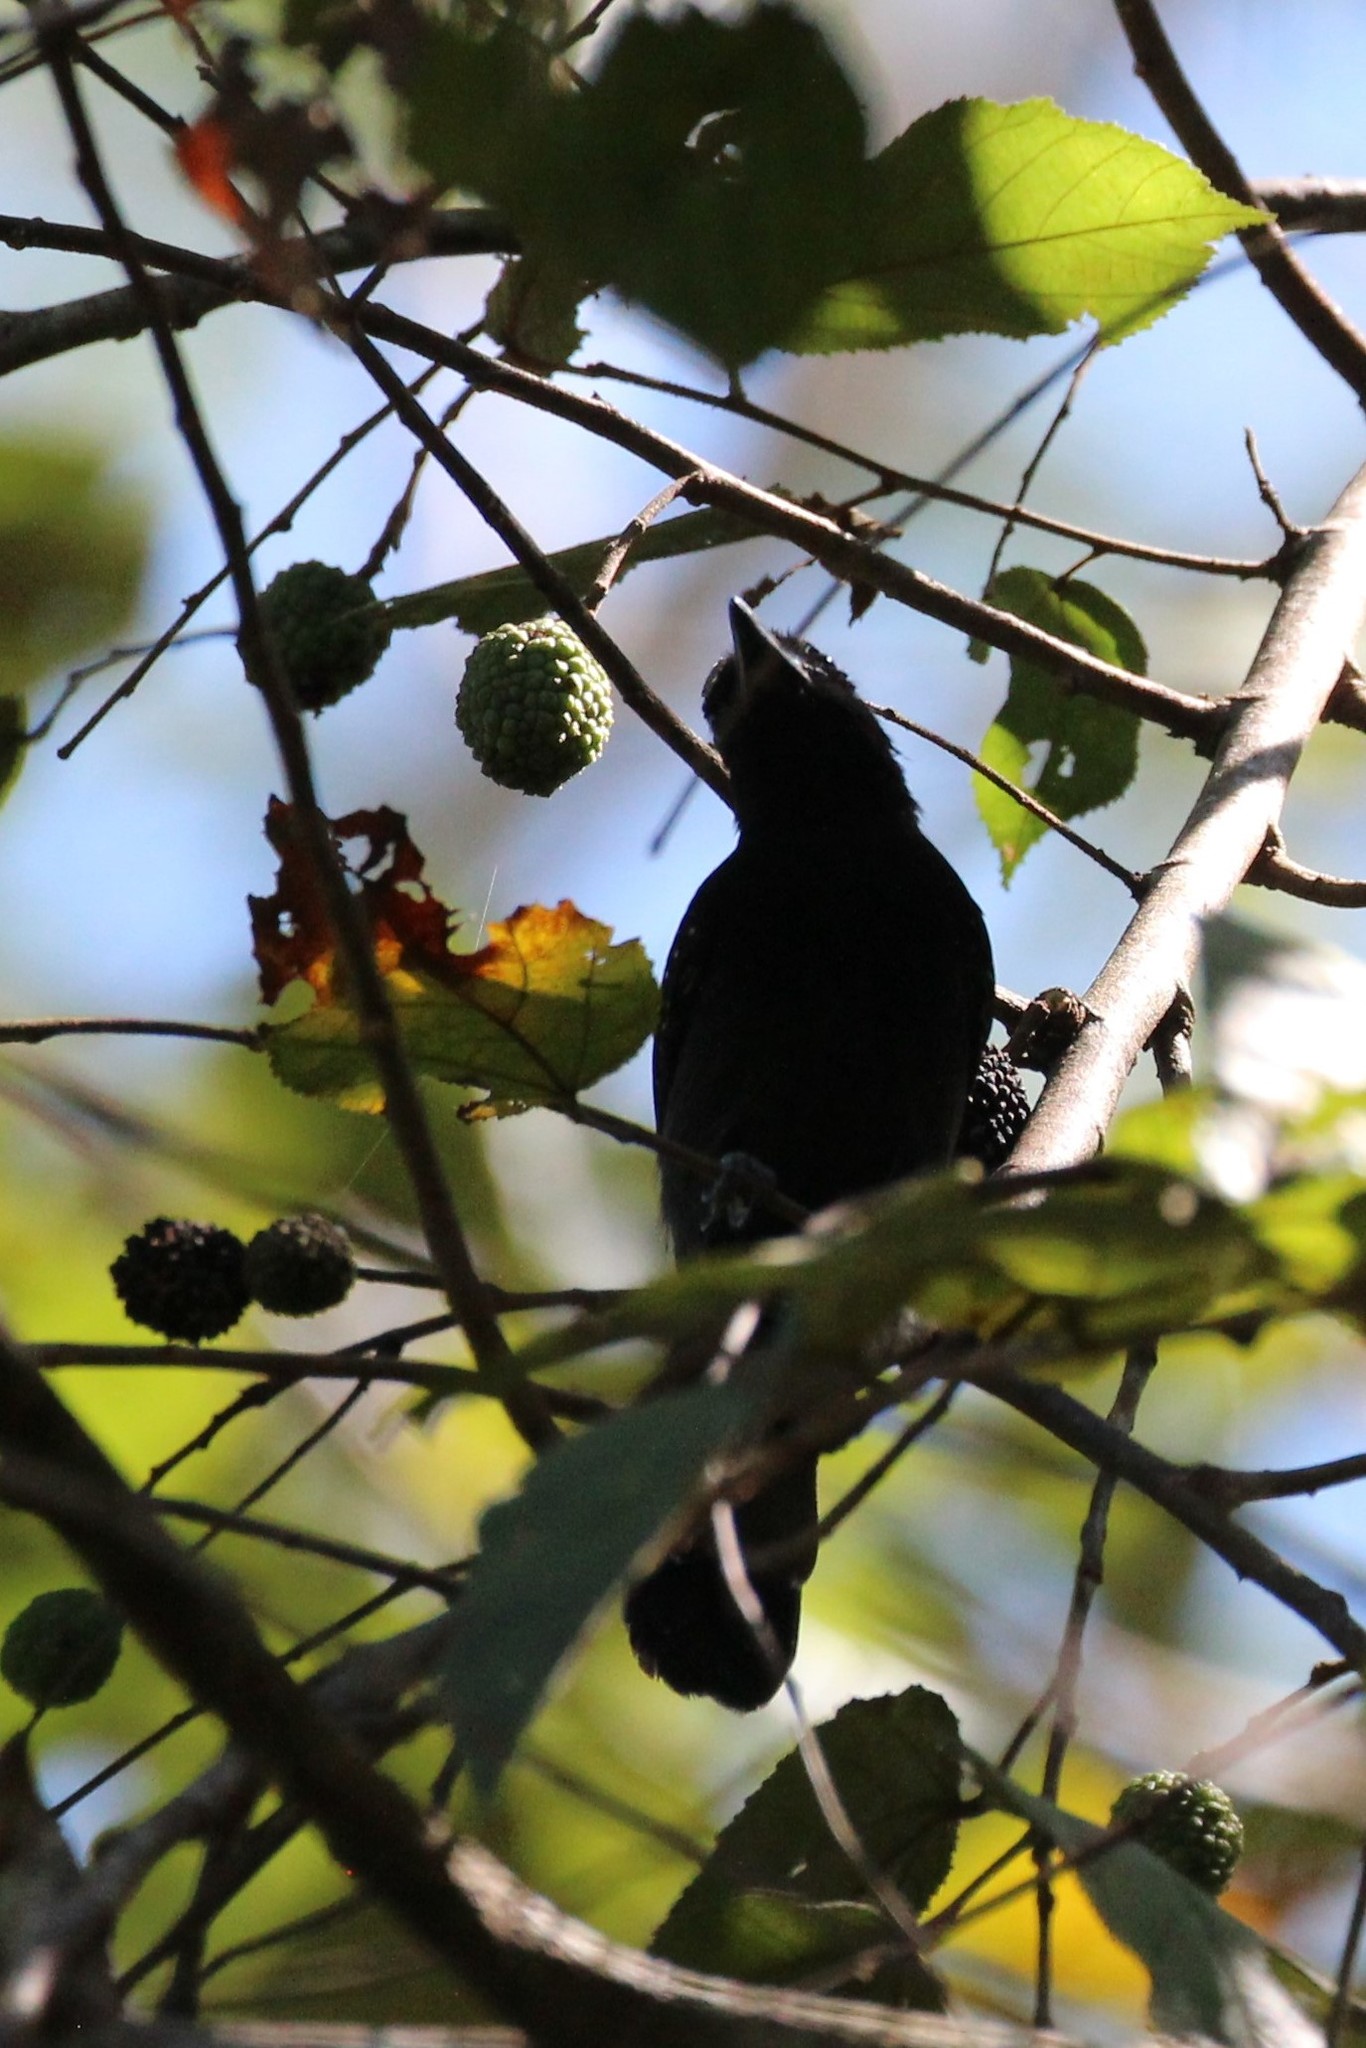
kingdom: Animalia
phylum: Chordata
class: Aves
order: Passeriformes
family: Thamnophilidae
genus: Thamnophilus
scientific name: Thamnophilus bridgesi
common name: Black-hooded antshrike
